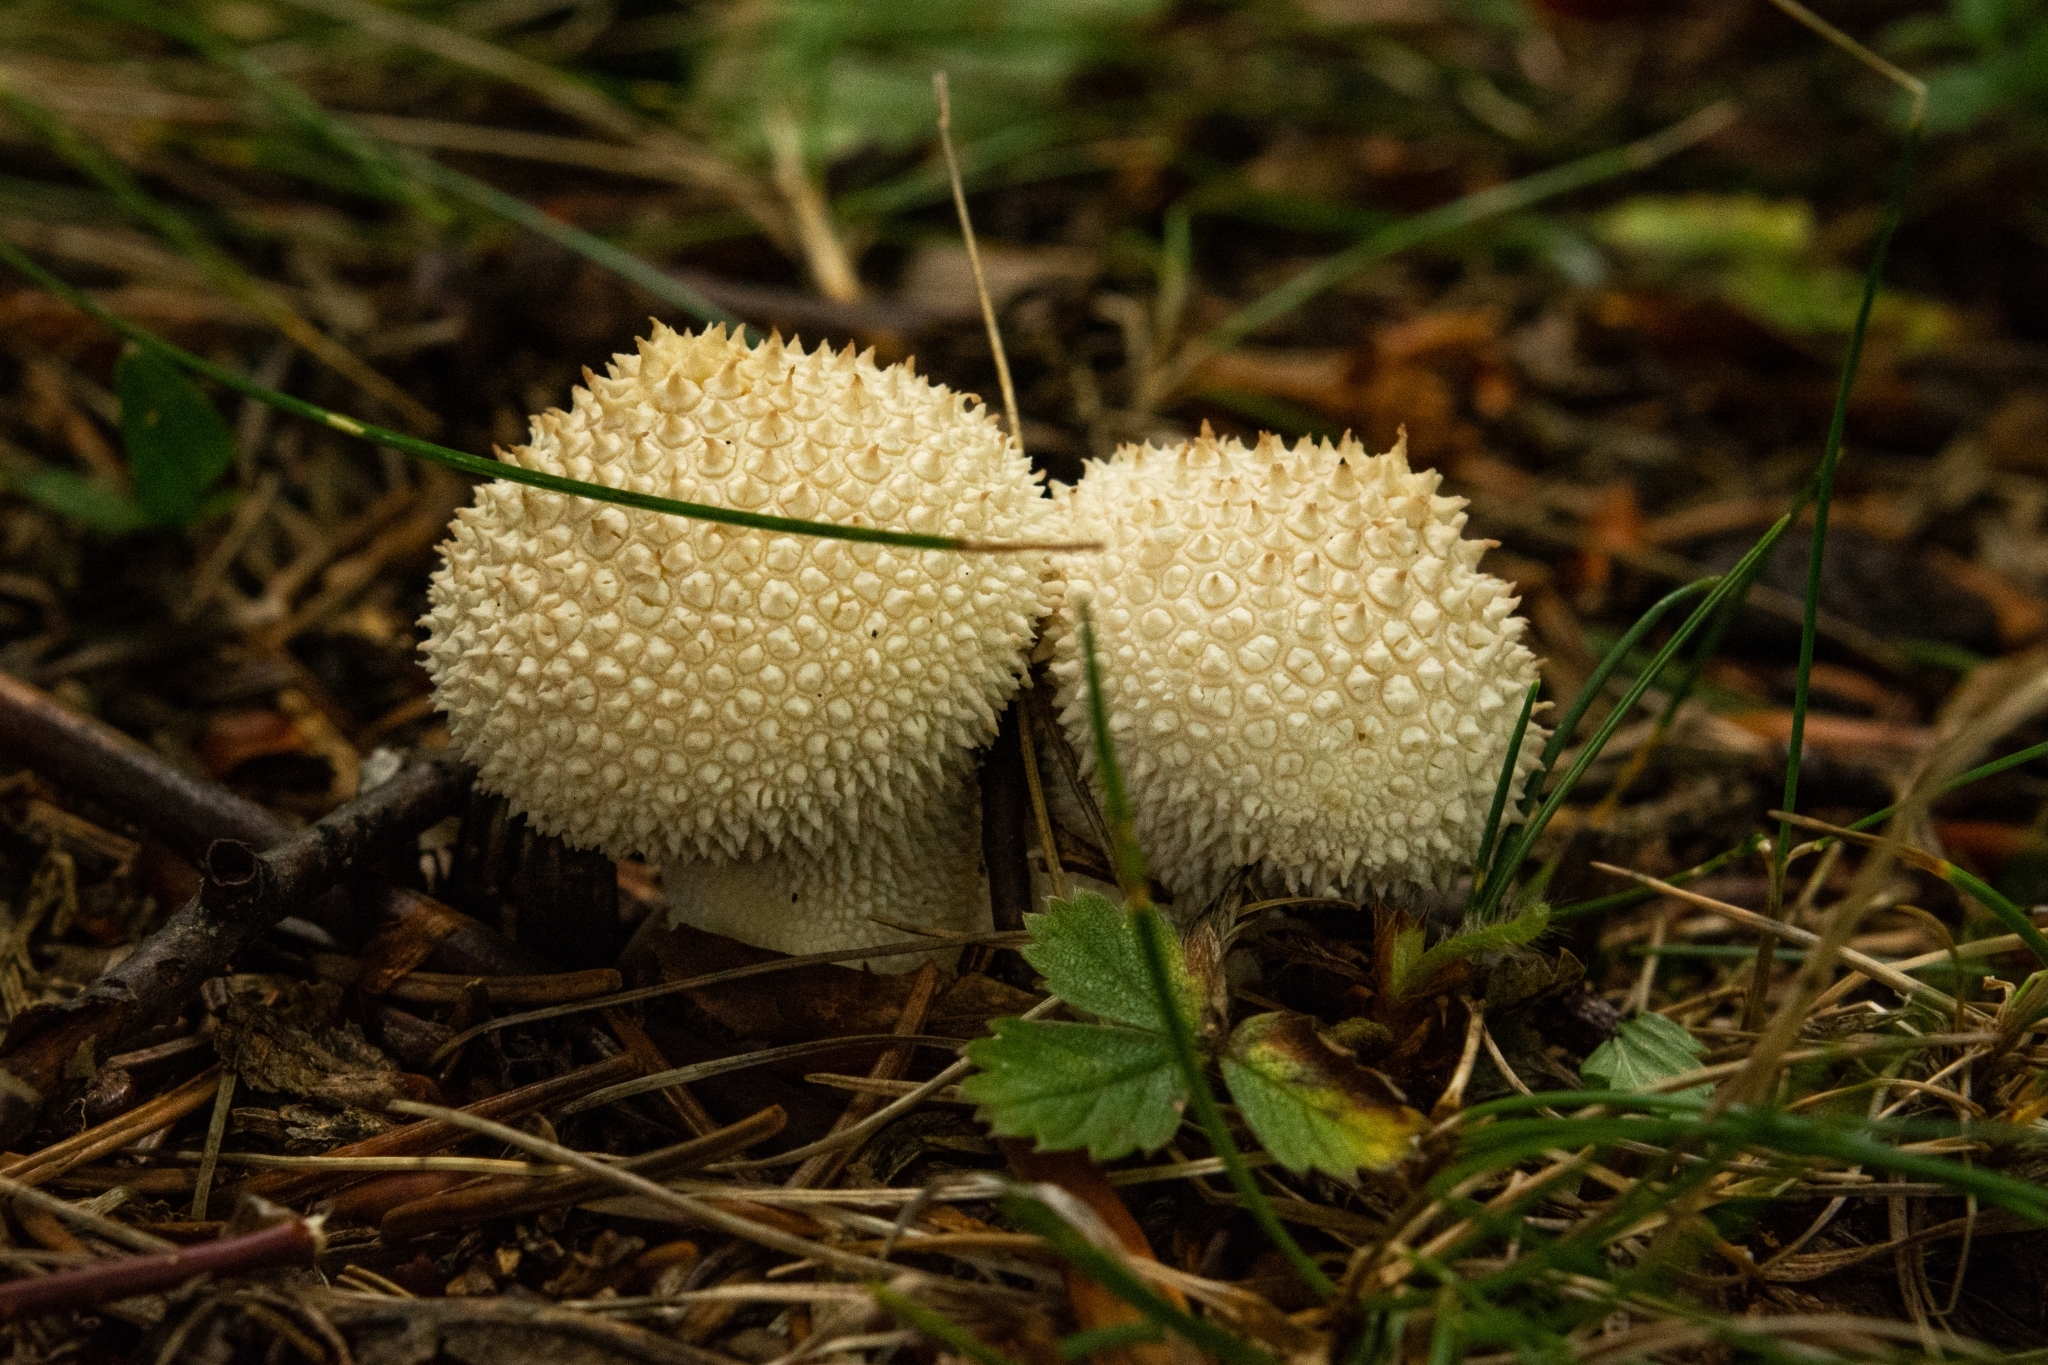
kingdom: Fungi
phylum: Basidiomycota
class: Agaricomycetes
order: Agaricales
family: Lycoperdaceae
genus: Lycoperdon
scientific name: Lycoperdon perlatum
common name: Common puffball
